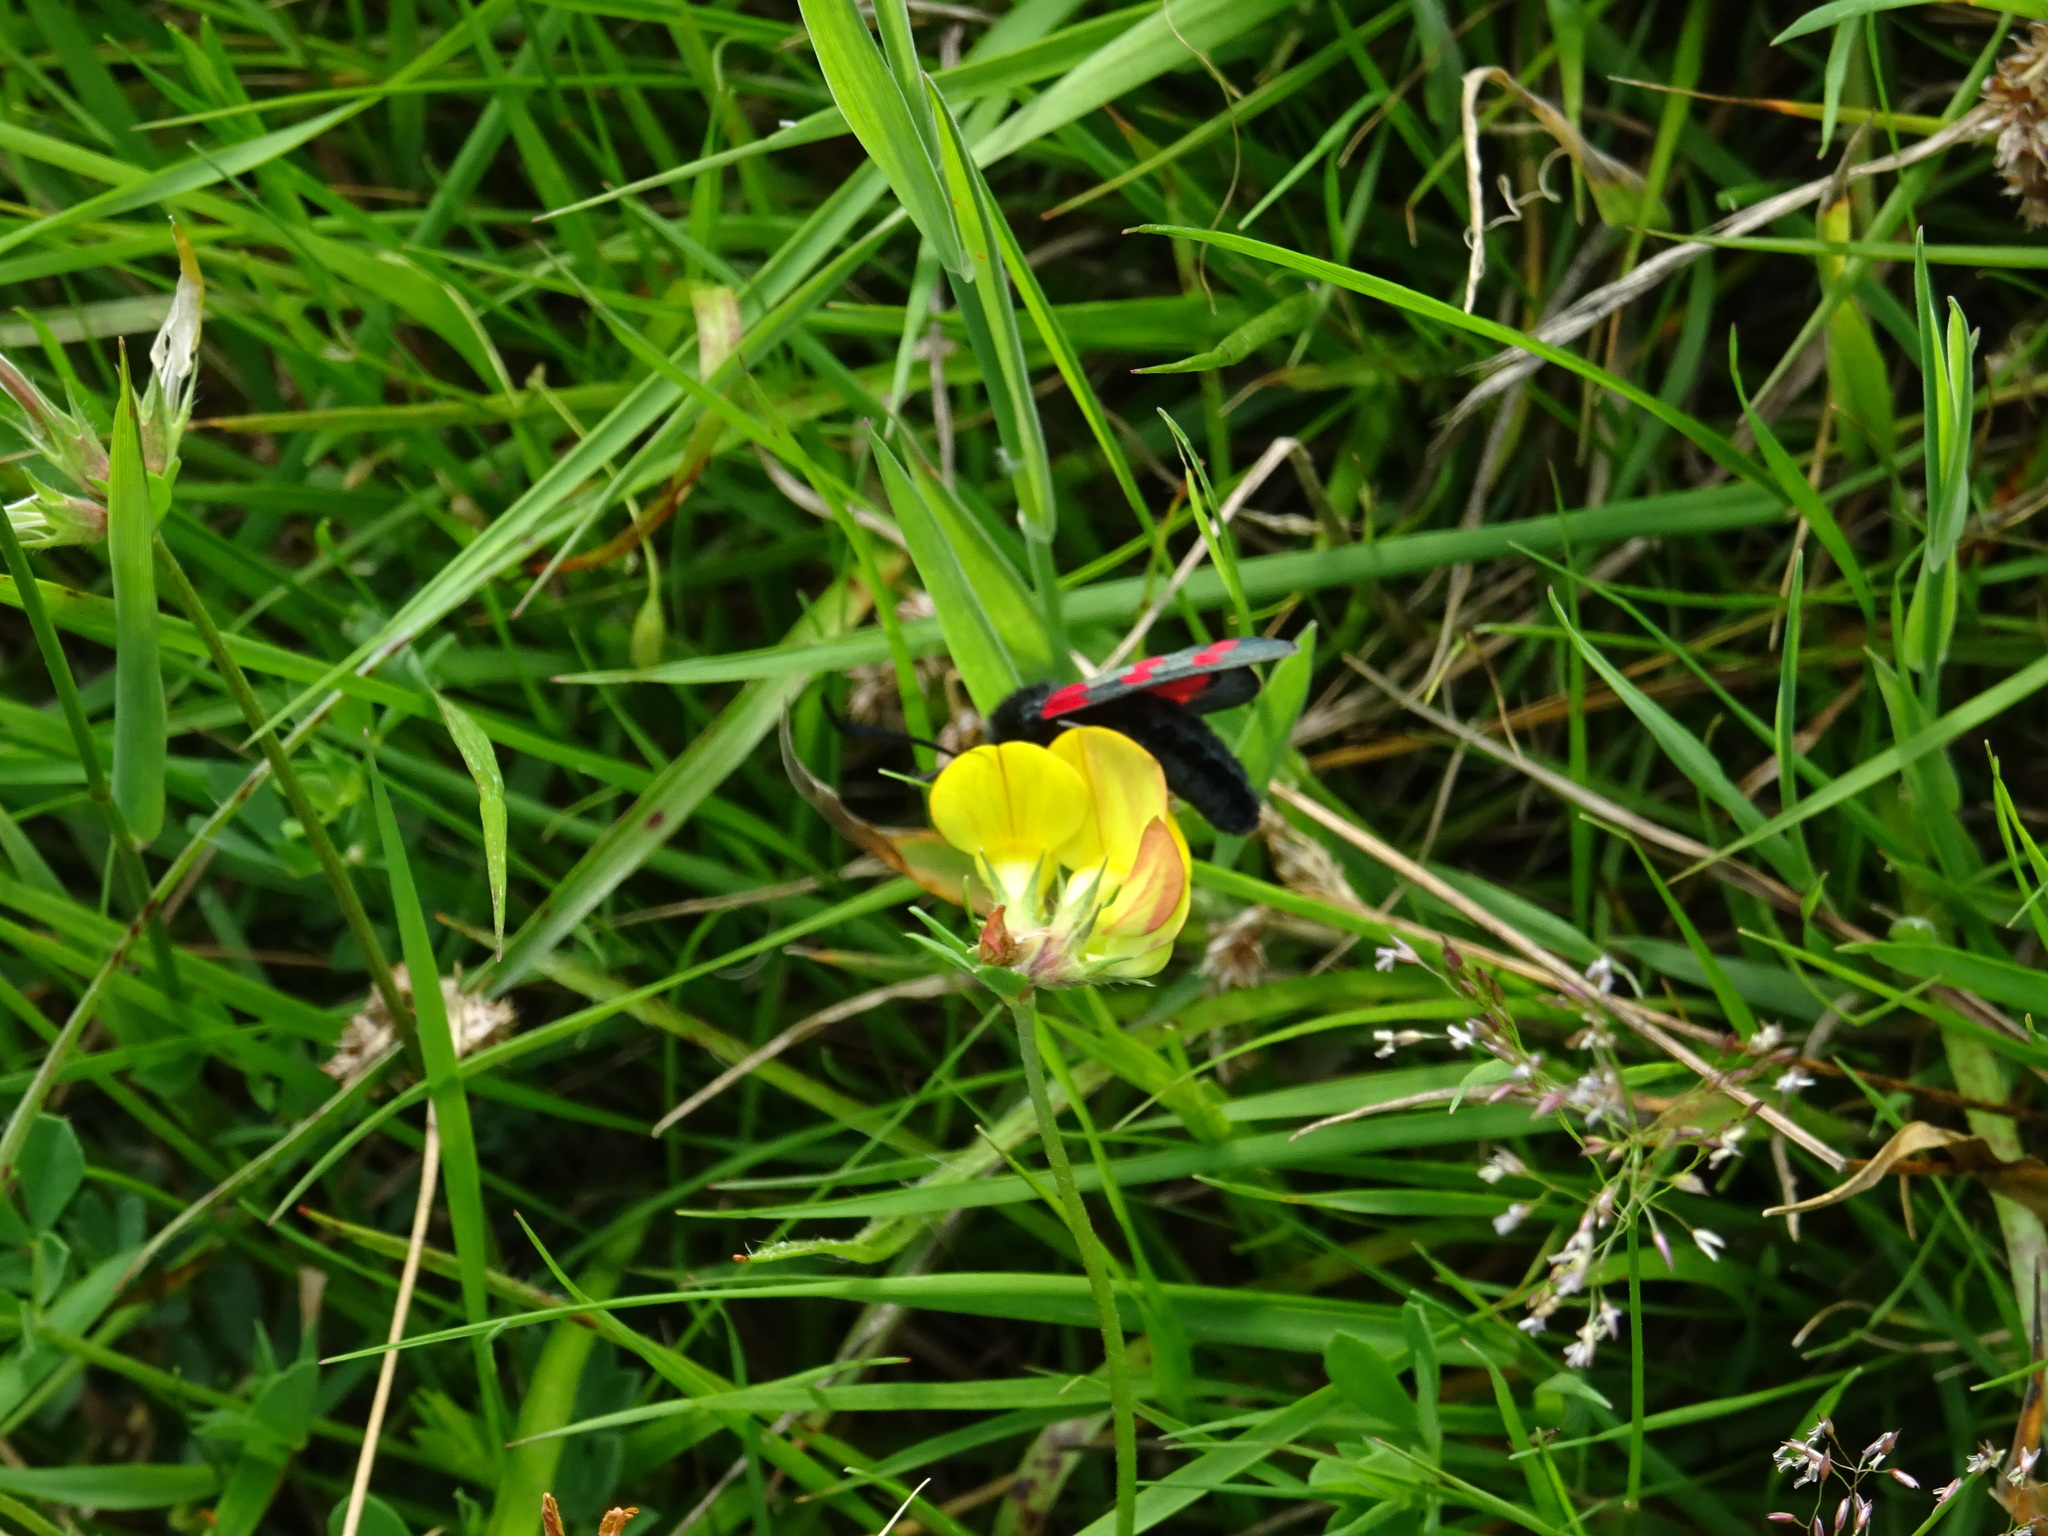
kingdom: Animalia
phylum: Arthropoda
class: Insecta
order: Lepidoptera
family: Zygaenidae
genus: Zygaena
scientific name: Zygaena filipendulae
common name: Six-spot burnet
